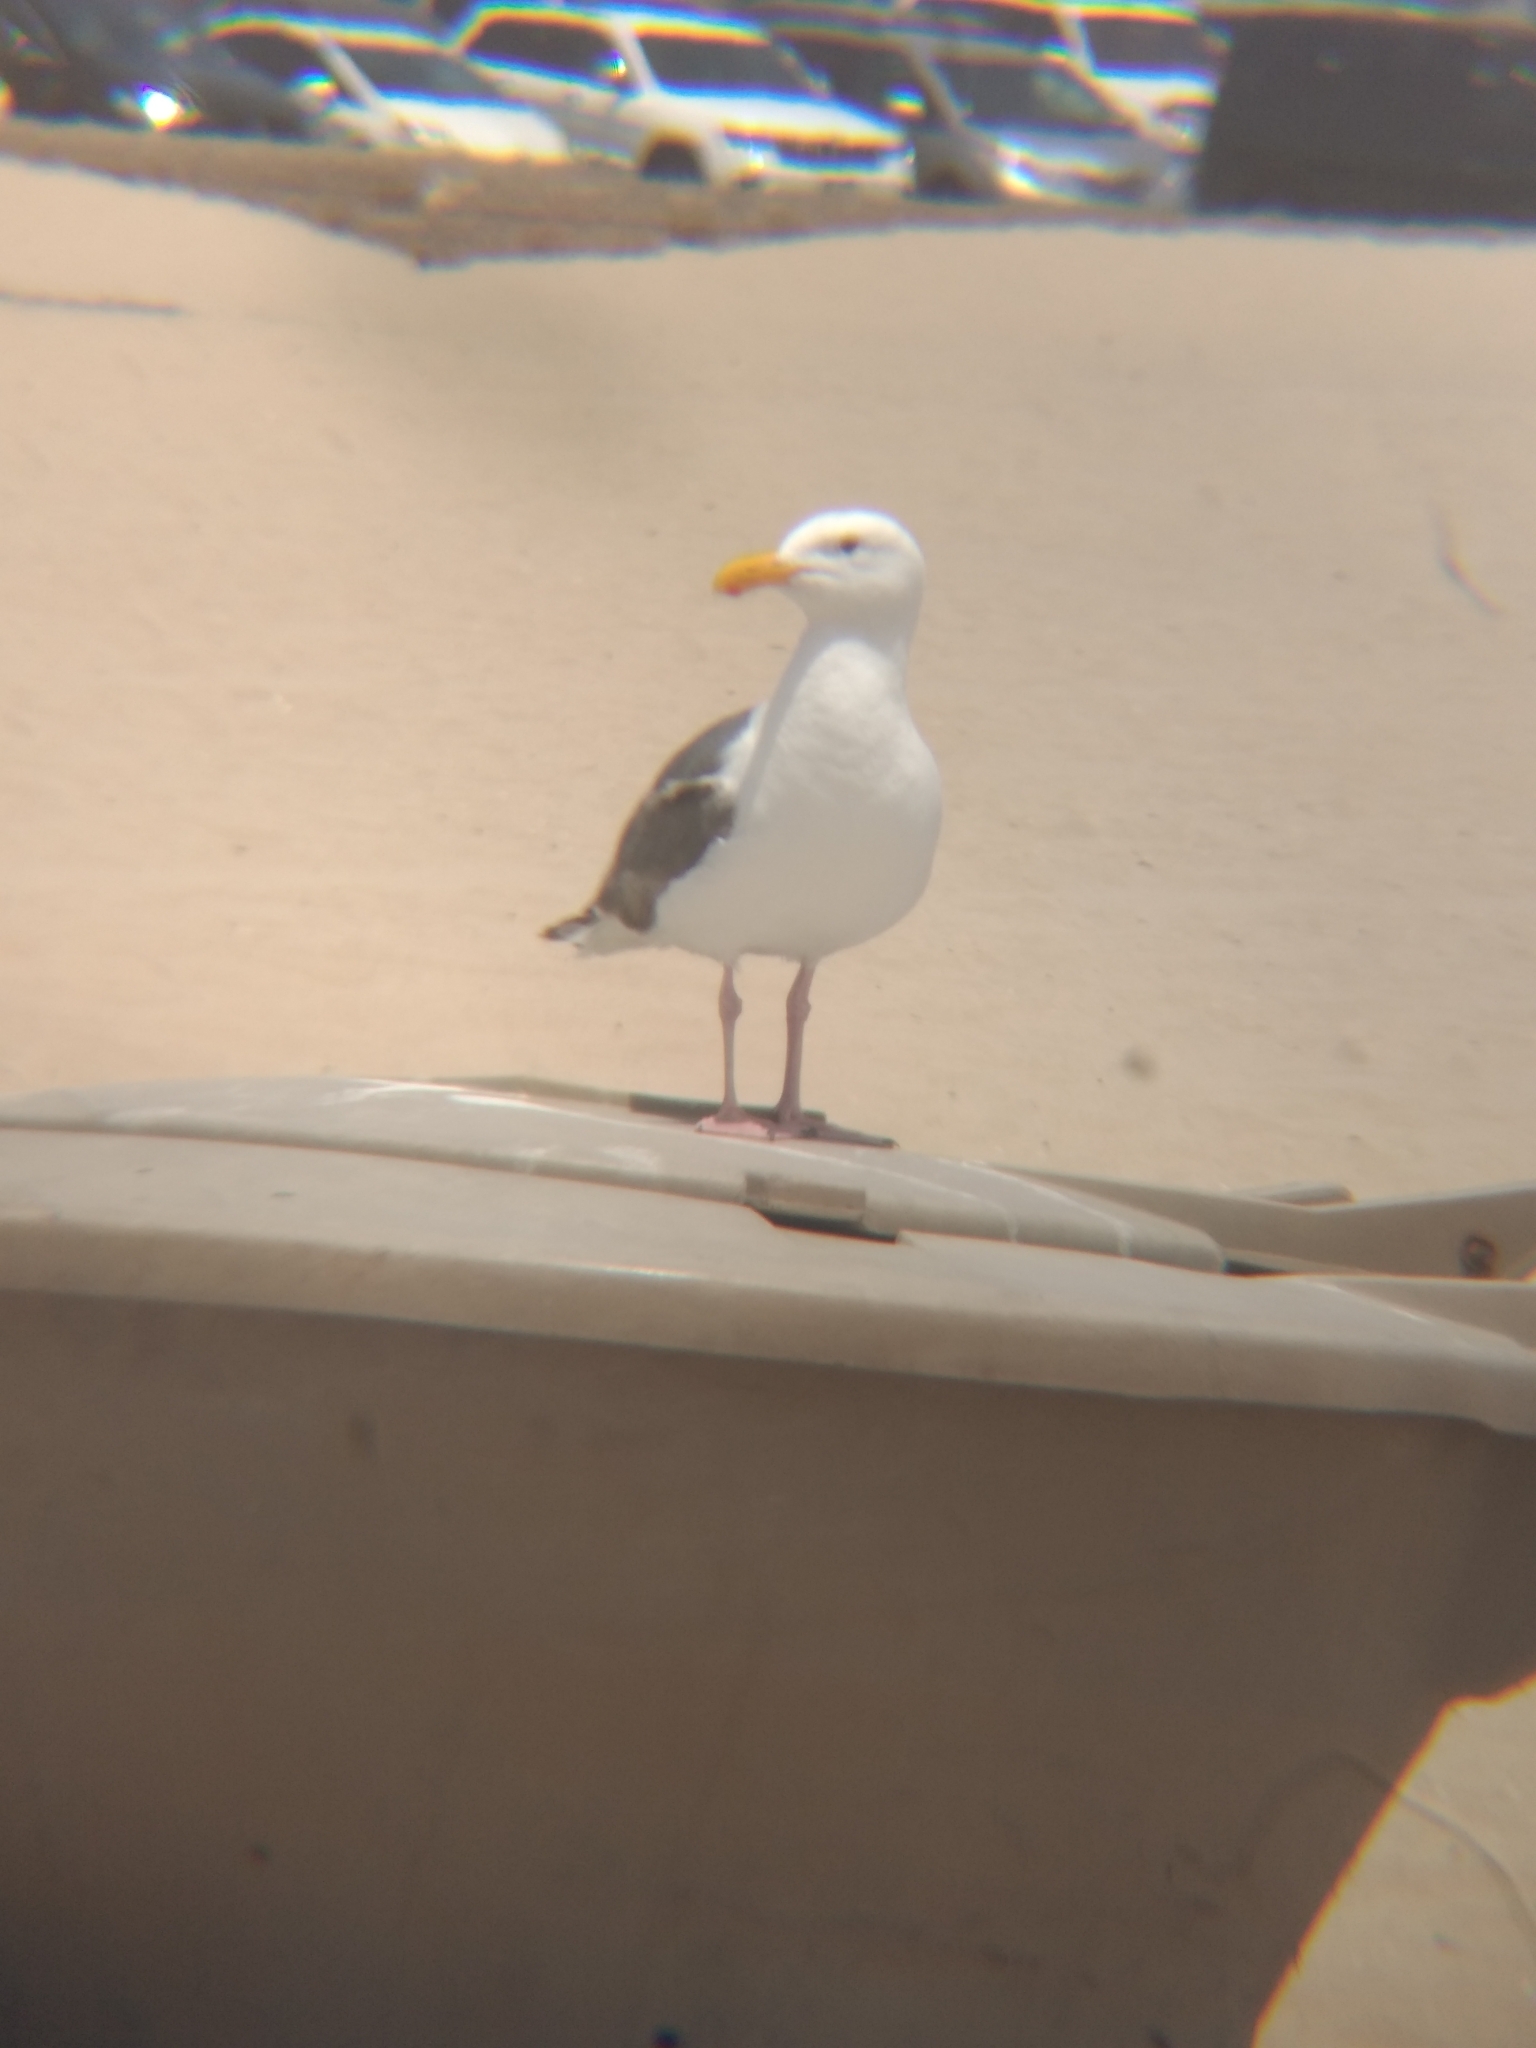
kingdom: Animalia
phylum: Chordata
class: Aves
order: Charadriiformes
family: Laridae
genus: Larus
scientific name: Larus occidentalis
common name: Western gull
